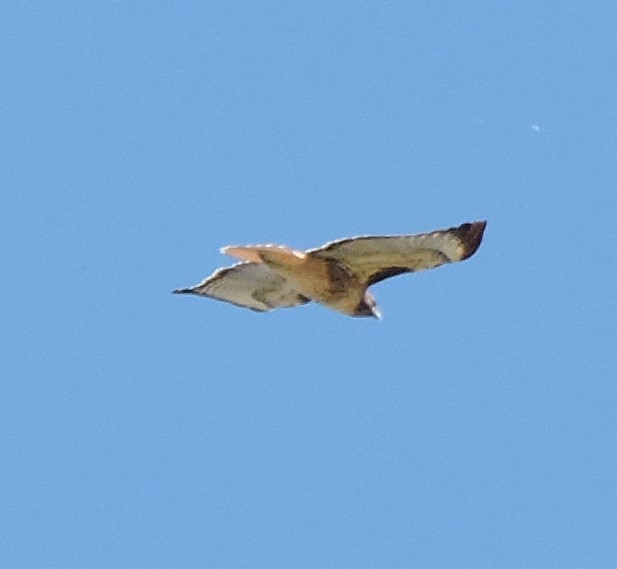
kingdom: Animalia
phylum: Chordata
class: Aves
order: Accipitriformes
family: Accipitridae
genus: Buteo
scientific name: Buteo jamaicensis
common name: Red-tailed hawk
